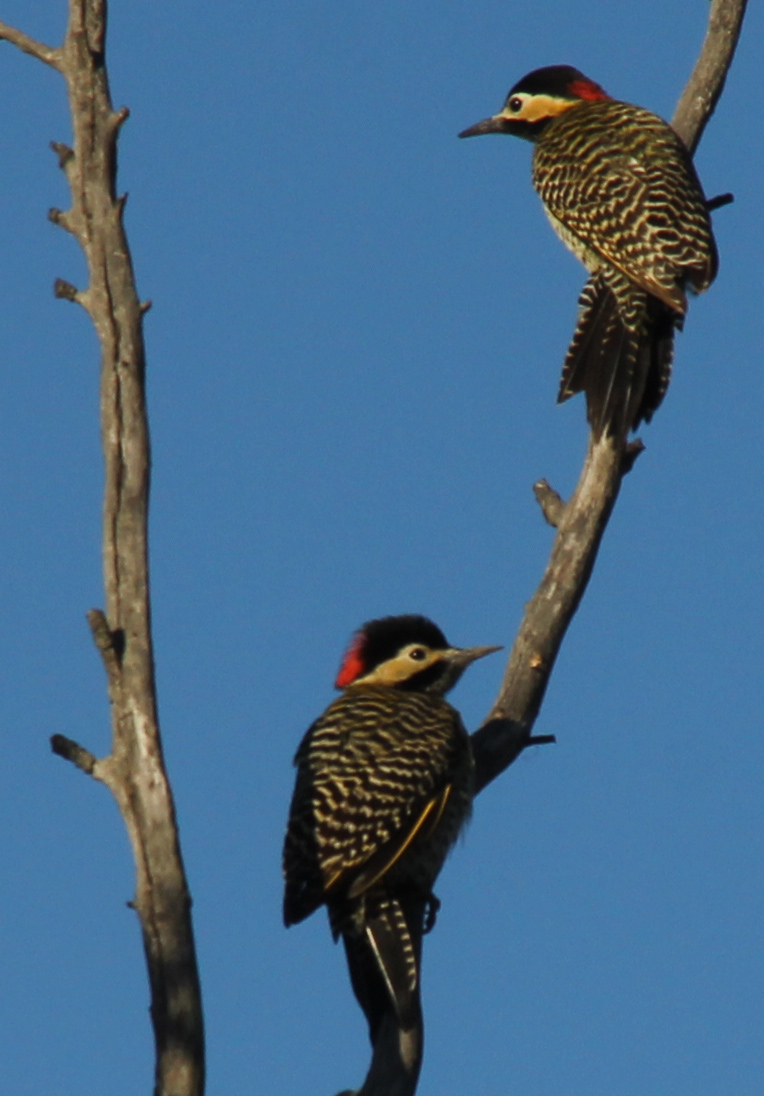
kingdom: Animalia
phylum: Chordata
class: Aves
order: Piciformes
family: Picidae
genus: Colaptes
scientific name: Colaptes melanochloros
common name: Green-barred woodpecker
